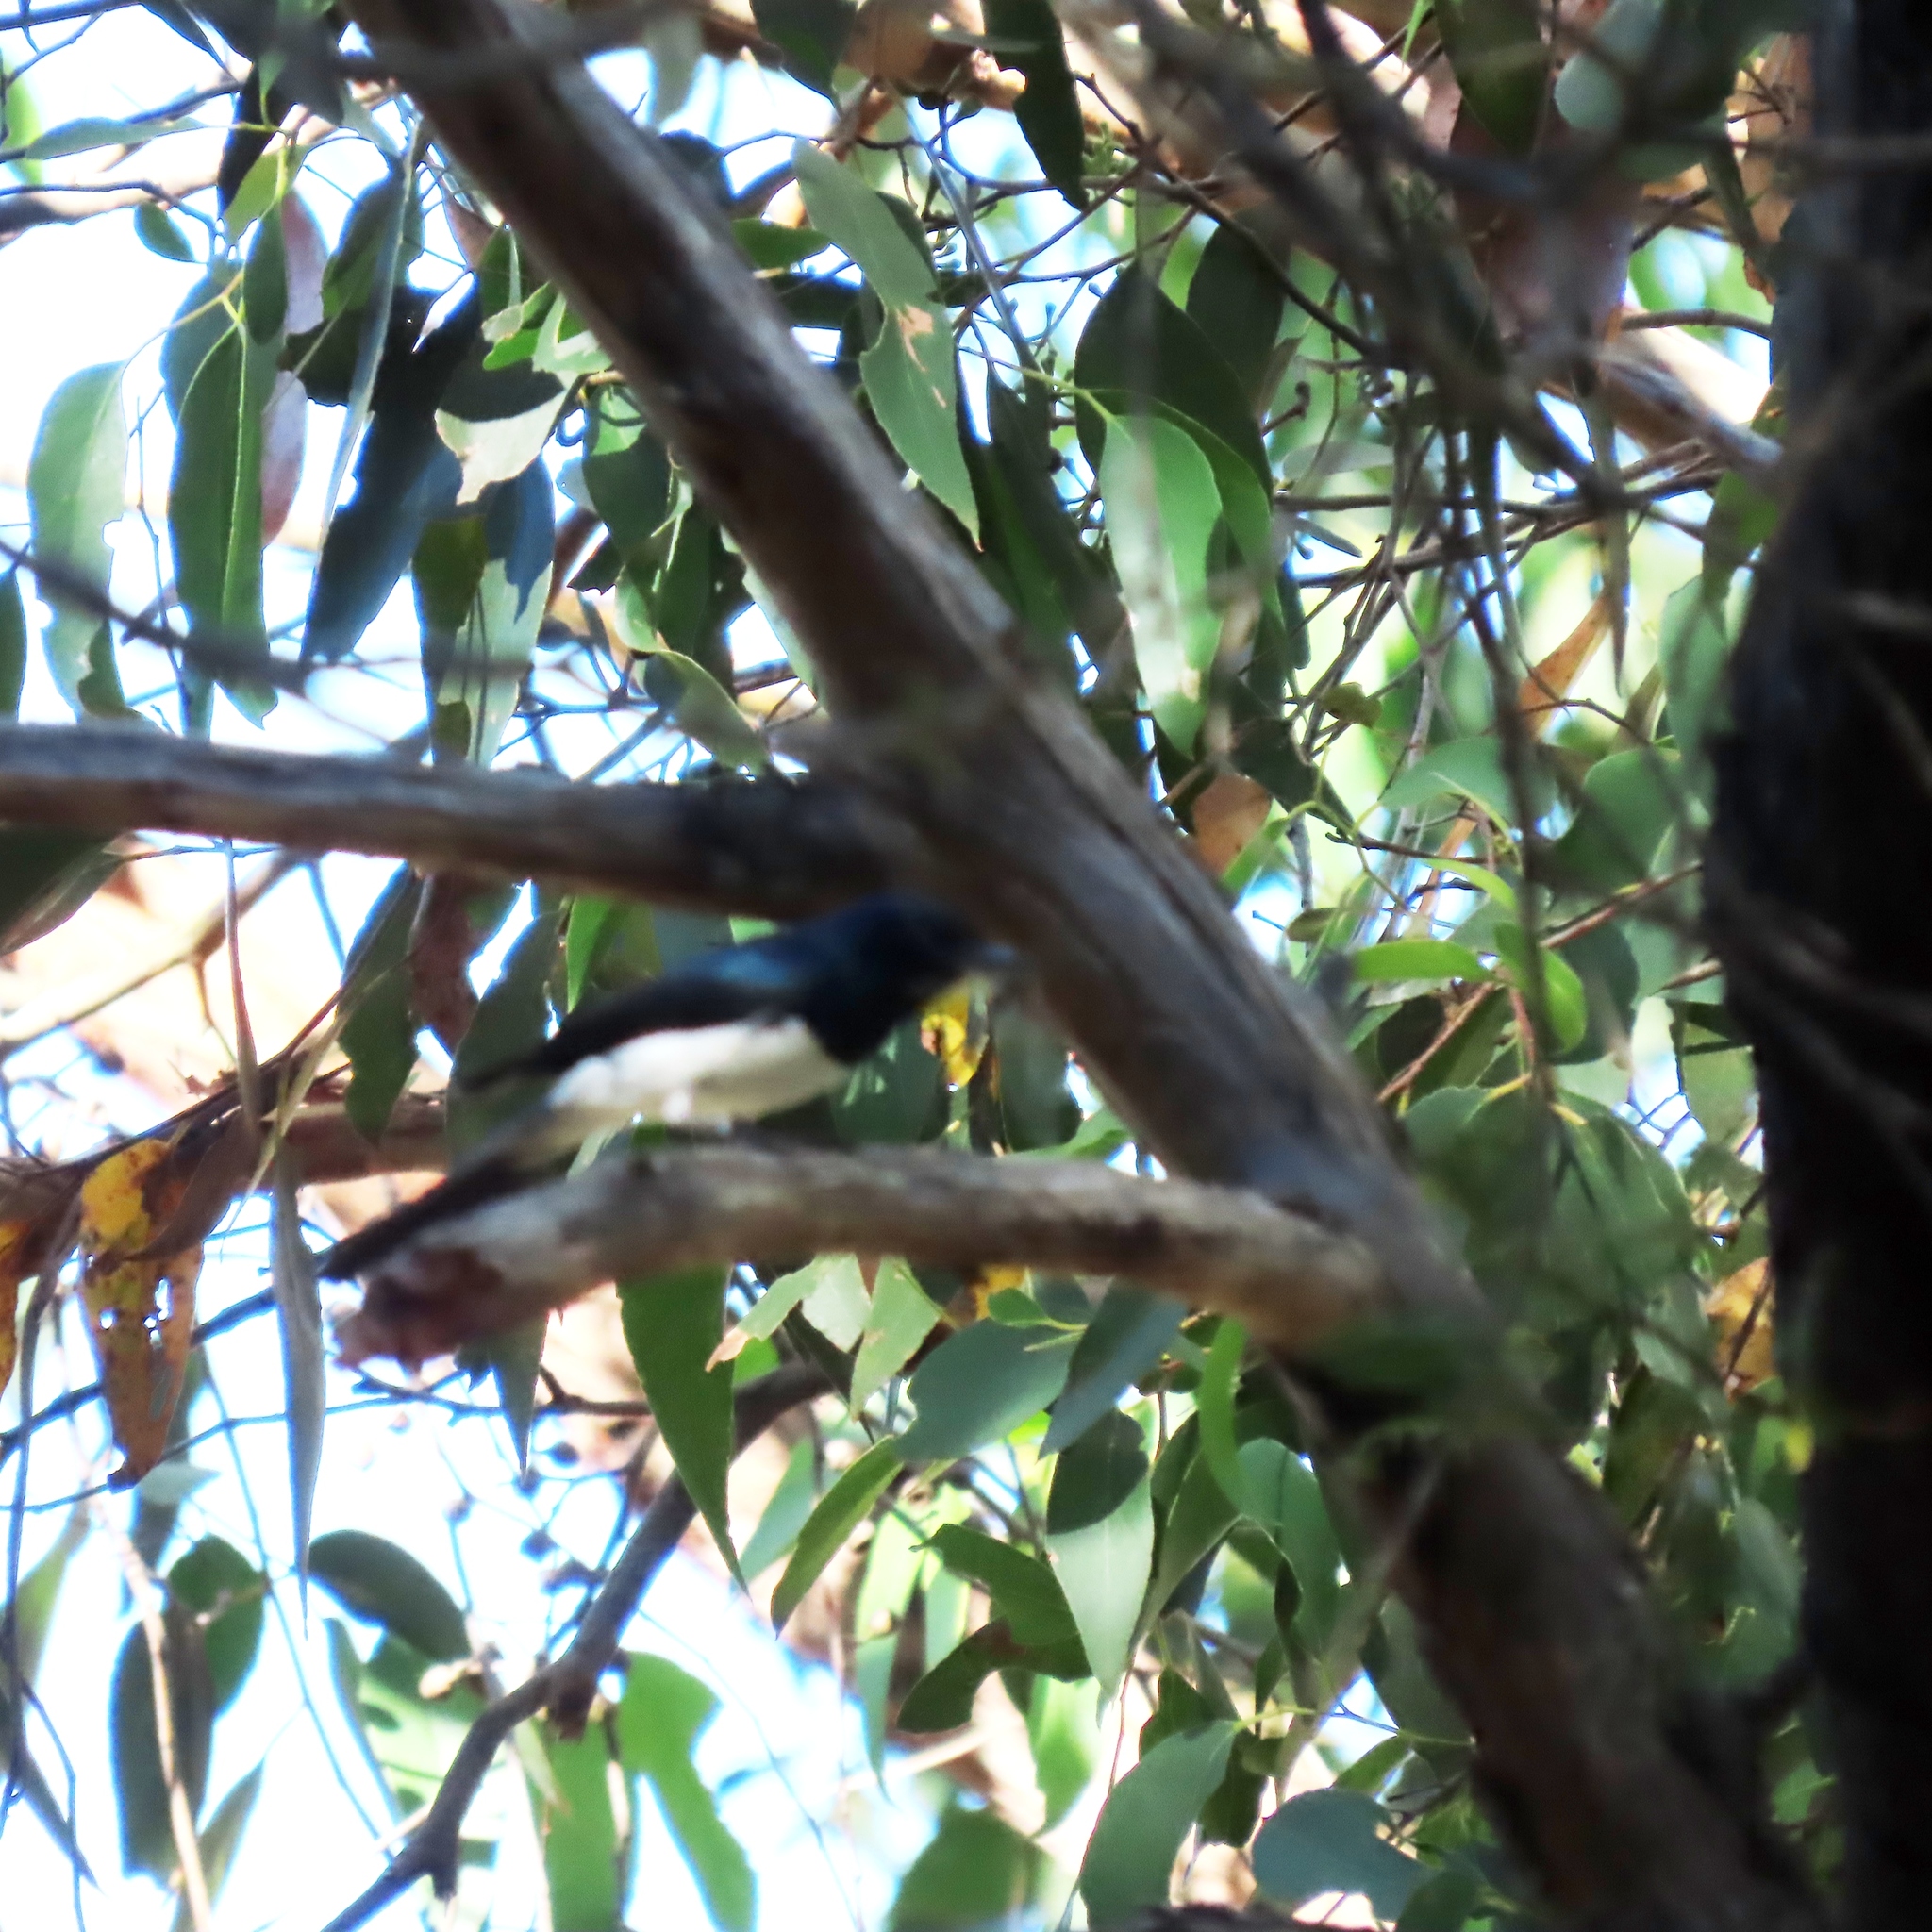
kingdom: Animalia
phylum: Chordata
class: Aves
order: Passeriformes
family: Monarchidae
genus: Myiagra
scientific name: Myiagra cyanoleuca
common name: Satin flycatcher
